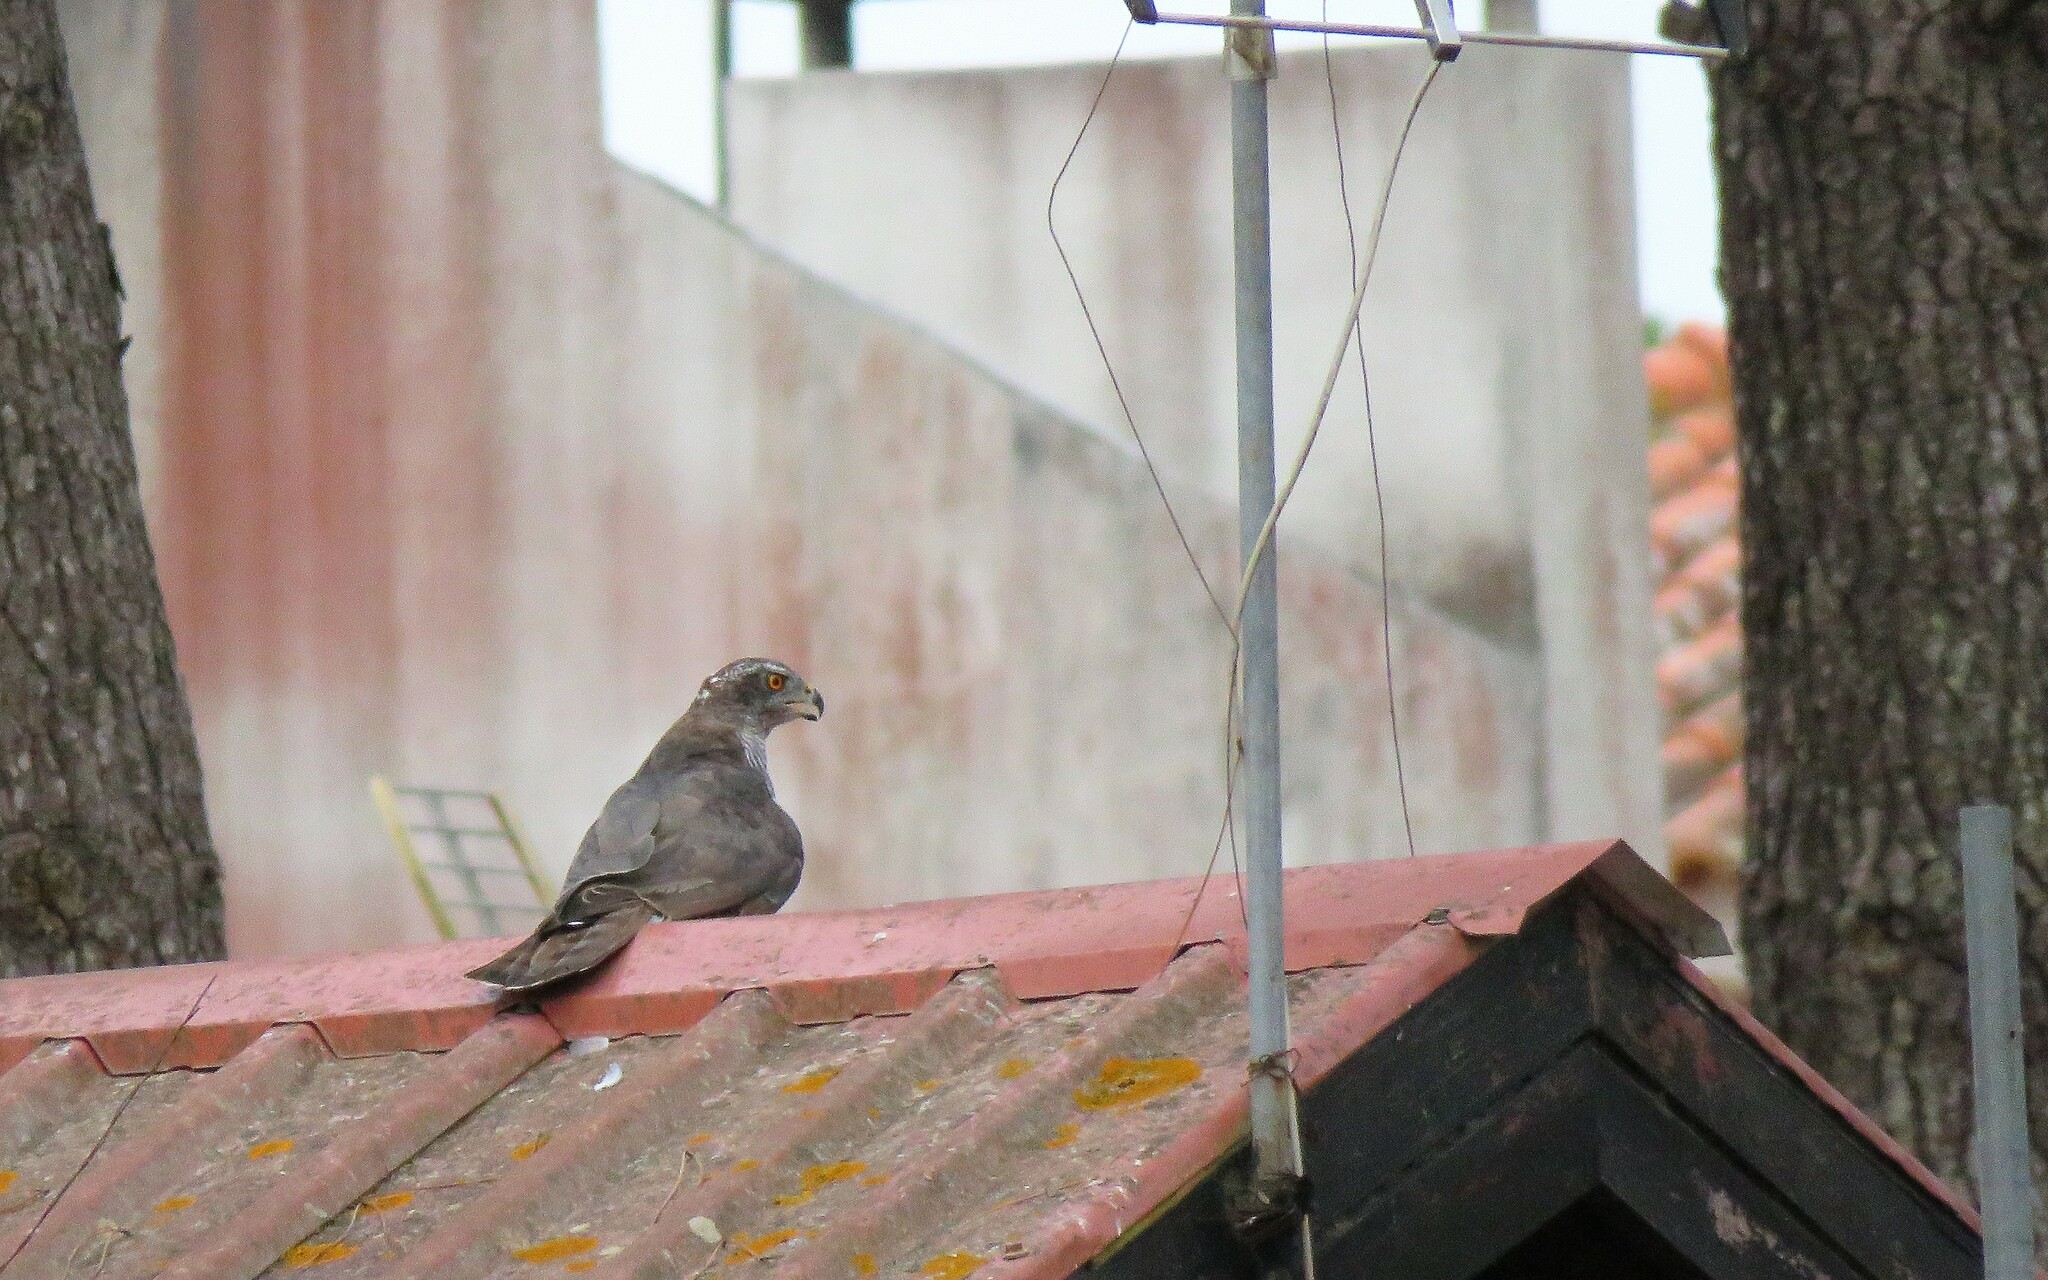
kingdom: Animalia
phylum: Chordata
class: Aves
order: Accipitriformes
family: Accipitridae
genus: Accipiter
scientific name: Accipiter gentilis
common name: Northern goshawk
